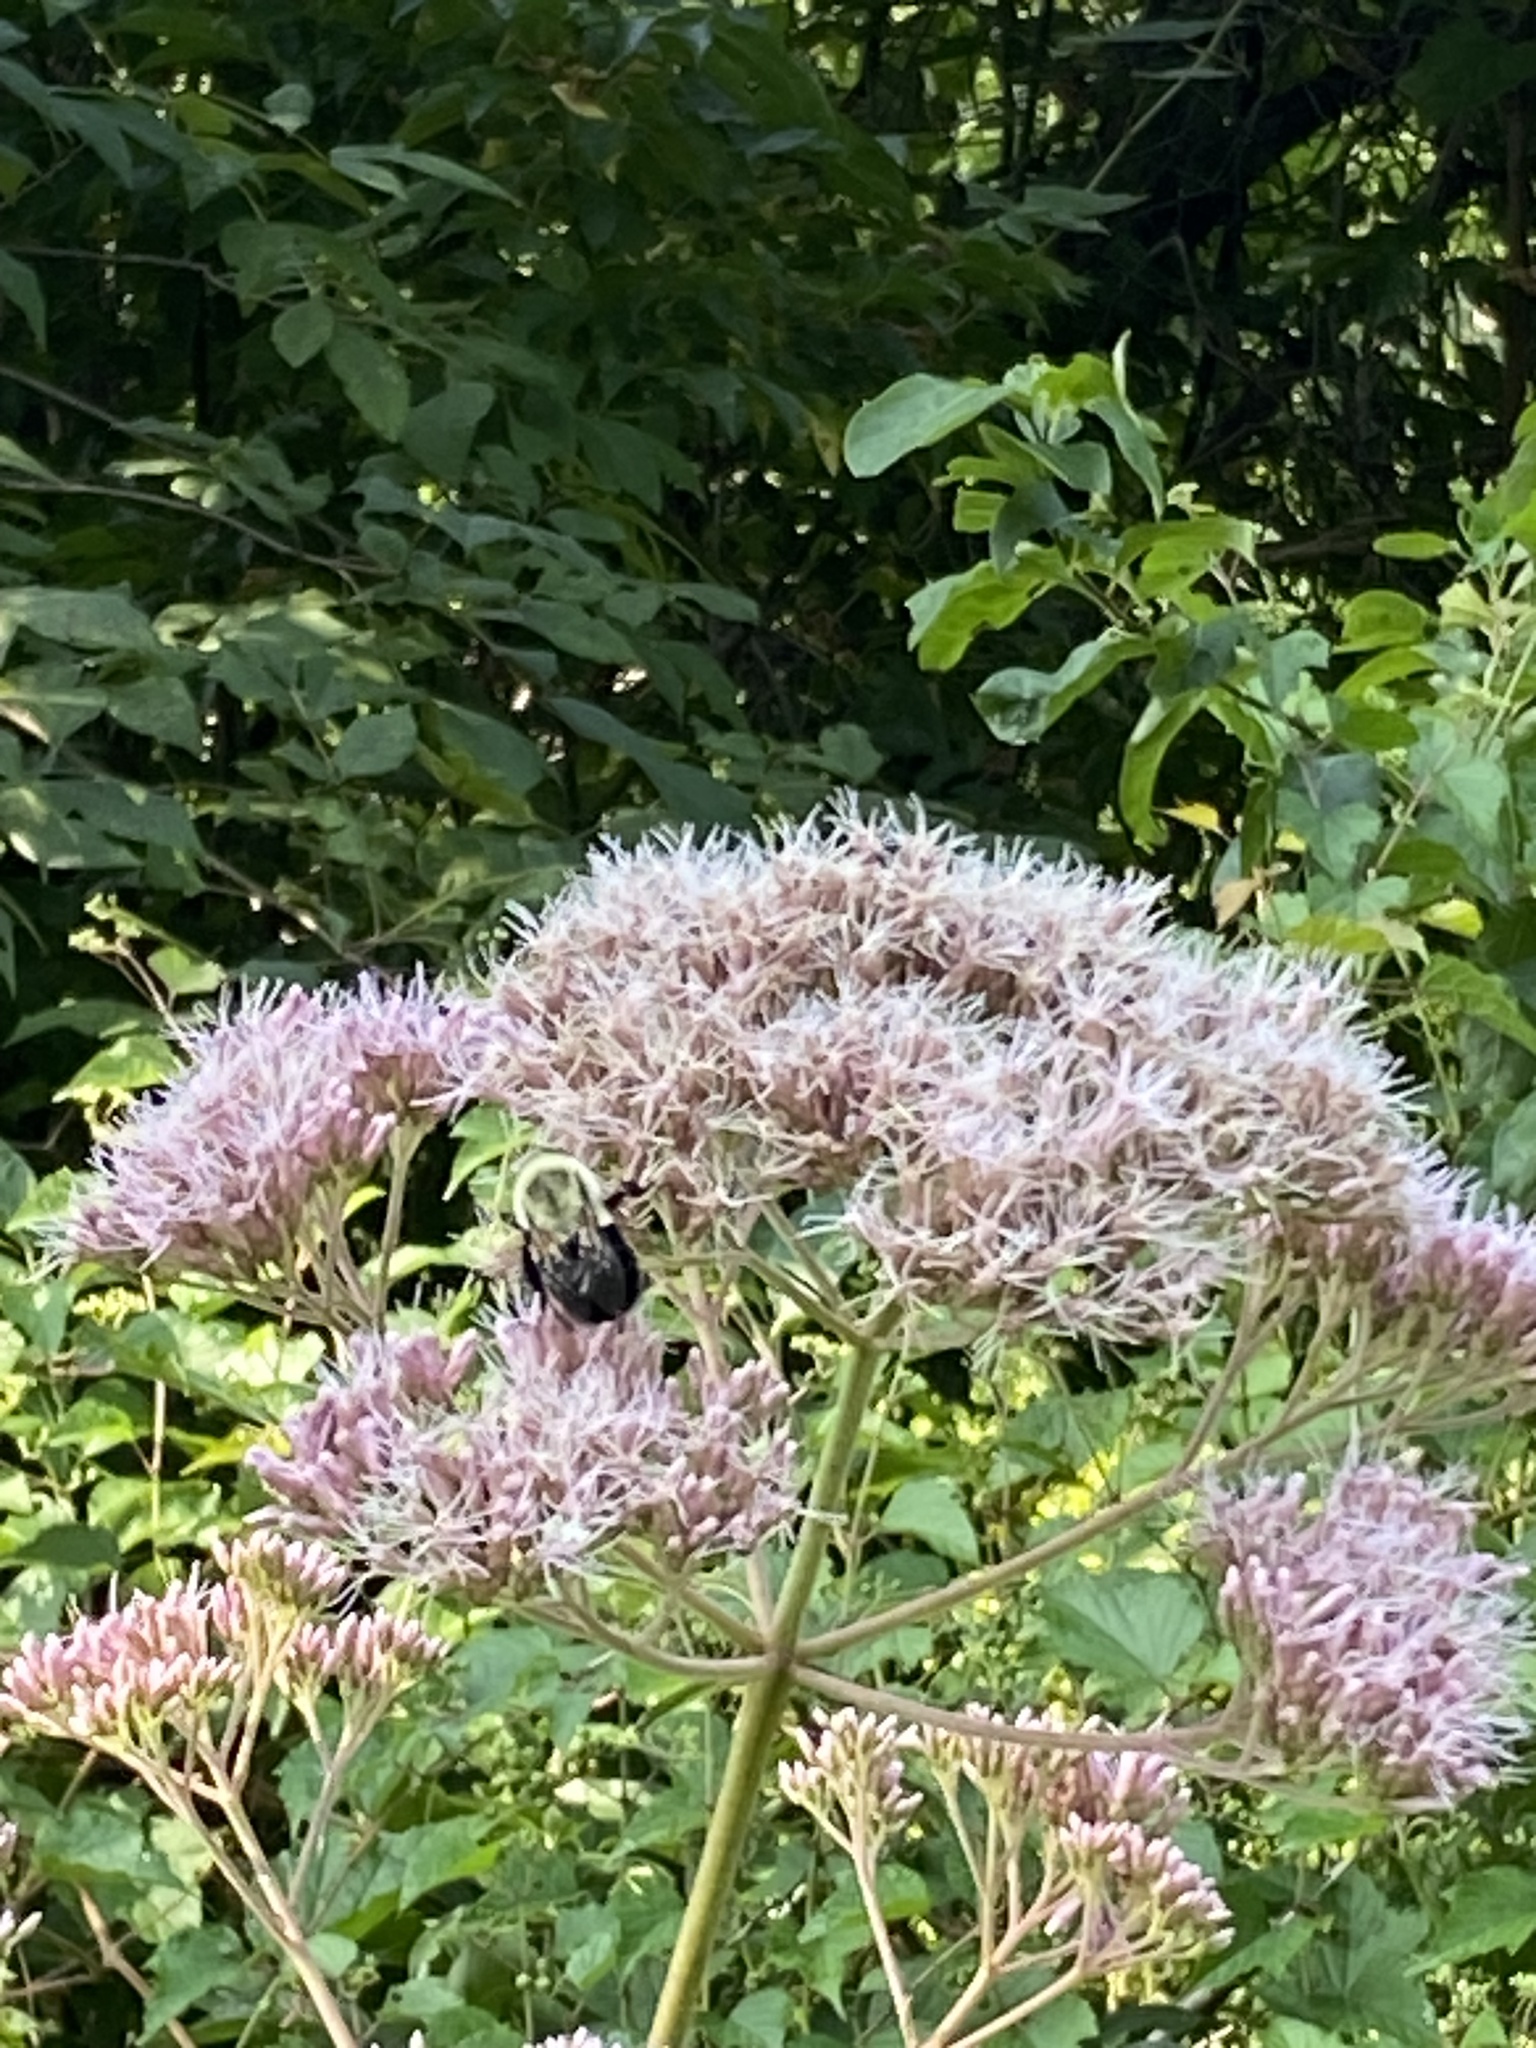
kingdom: Animalia
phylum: Arthropoda
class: Insecta
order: Hymenoptera
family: Apidae
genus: Bombus
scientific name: Bombus impatiens
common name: Common eastern bumble bee
